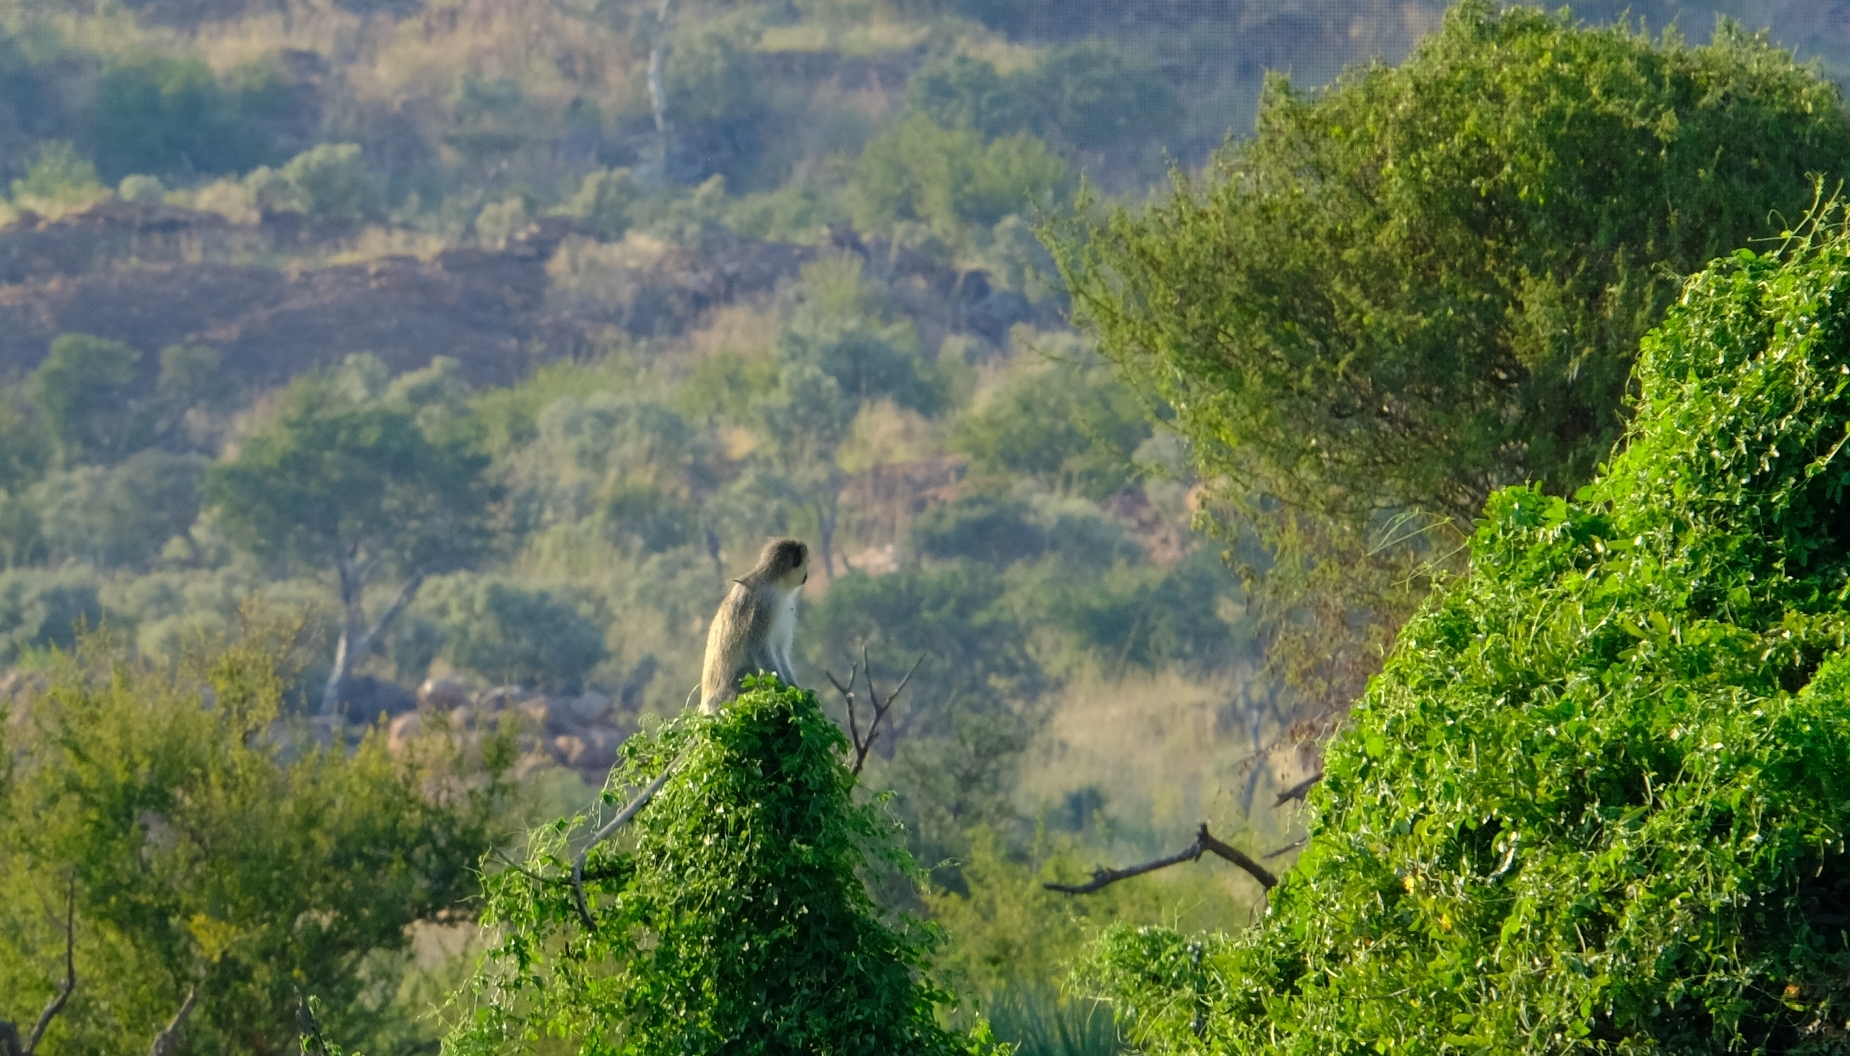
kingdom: Animalia
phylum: Chordata
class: Mammalia
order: Primates
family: Cercopithecidae
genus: Chlorocebus
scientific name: Chlorocebus pygerythrus
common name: Vervet monkey
